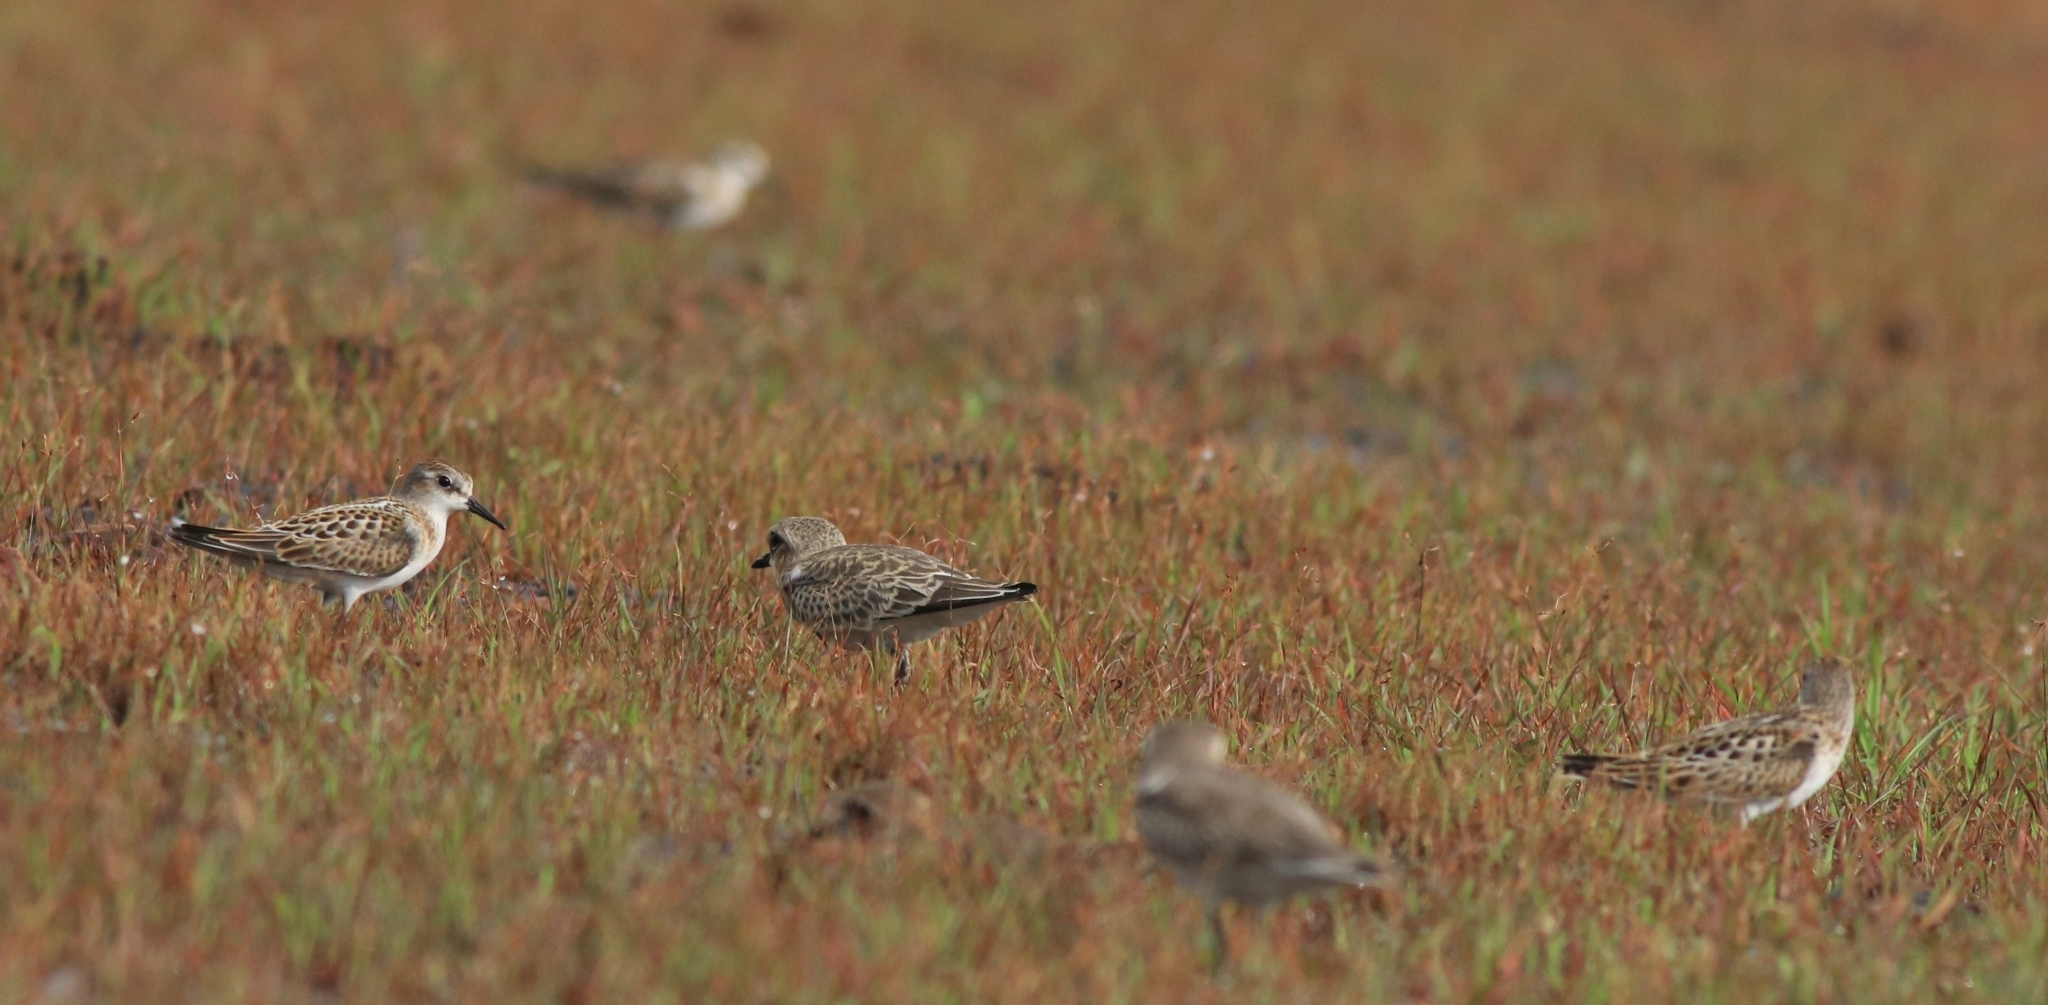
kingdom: Animalia
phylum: Chordata
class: Aves
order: Charadriiformes
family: Scolopacidae
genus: Calidris
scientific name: Calidris minuta
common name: Little stint
